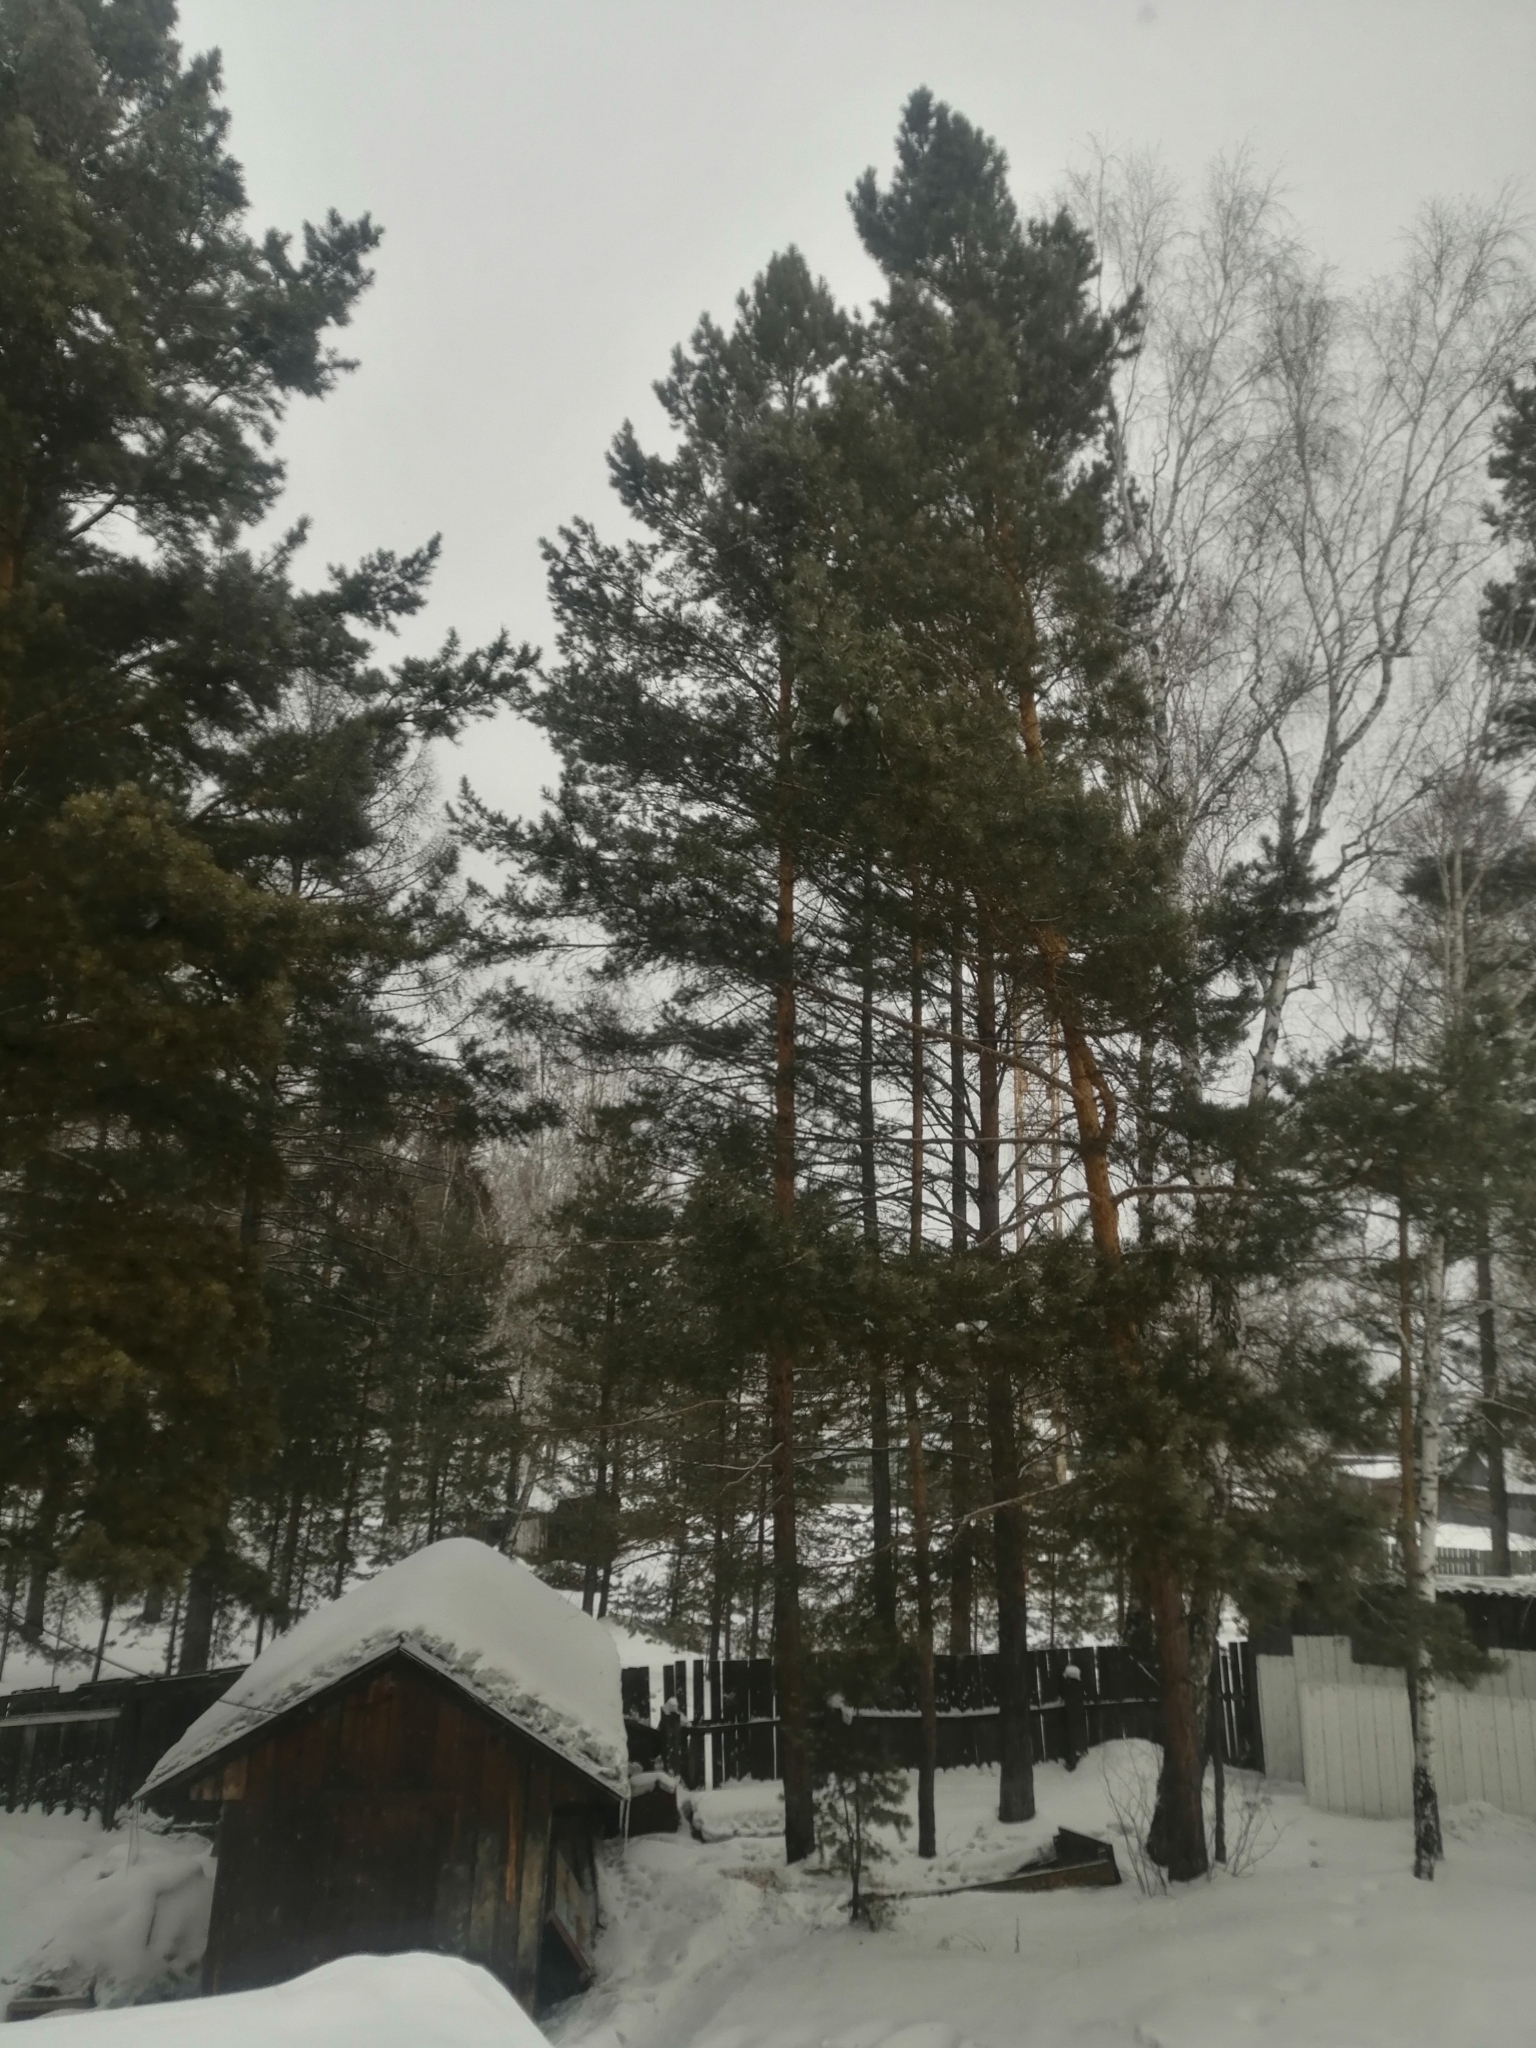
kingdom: Plantae
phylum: Tracheophyta
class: Pinopsida
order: Pinales
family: Pinaceae
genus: Pinus
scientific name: Pinus sylvestris
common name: Scots pine
